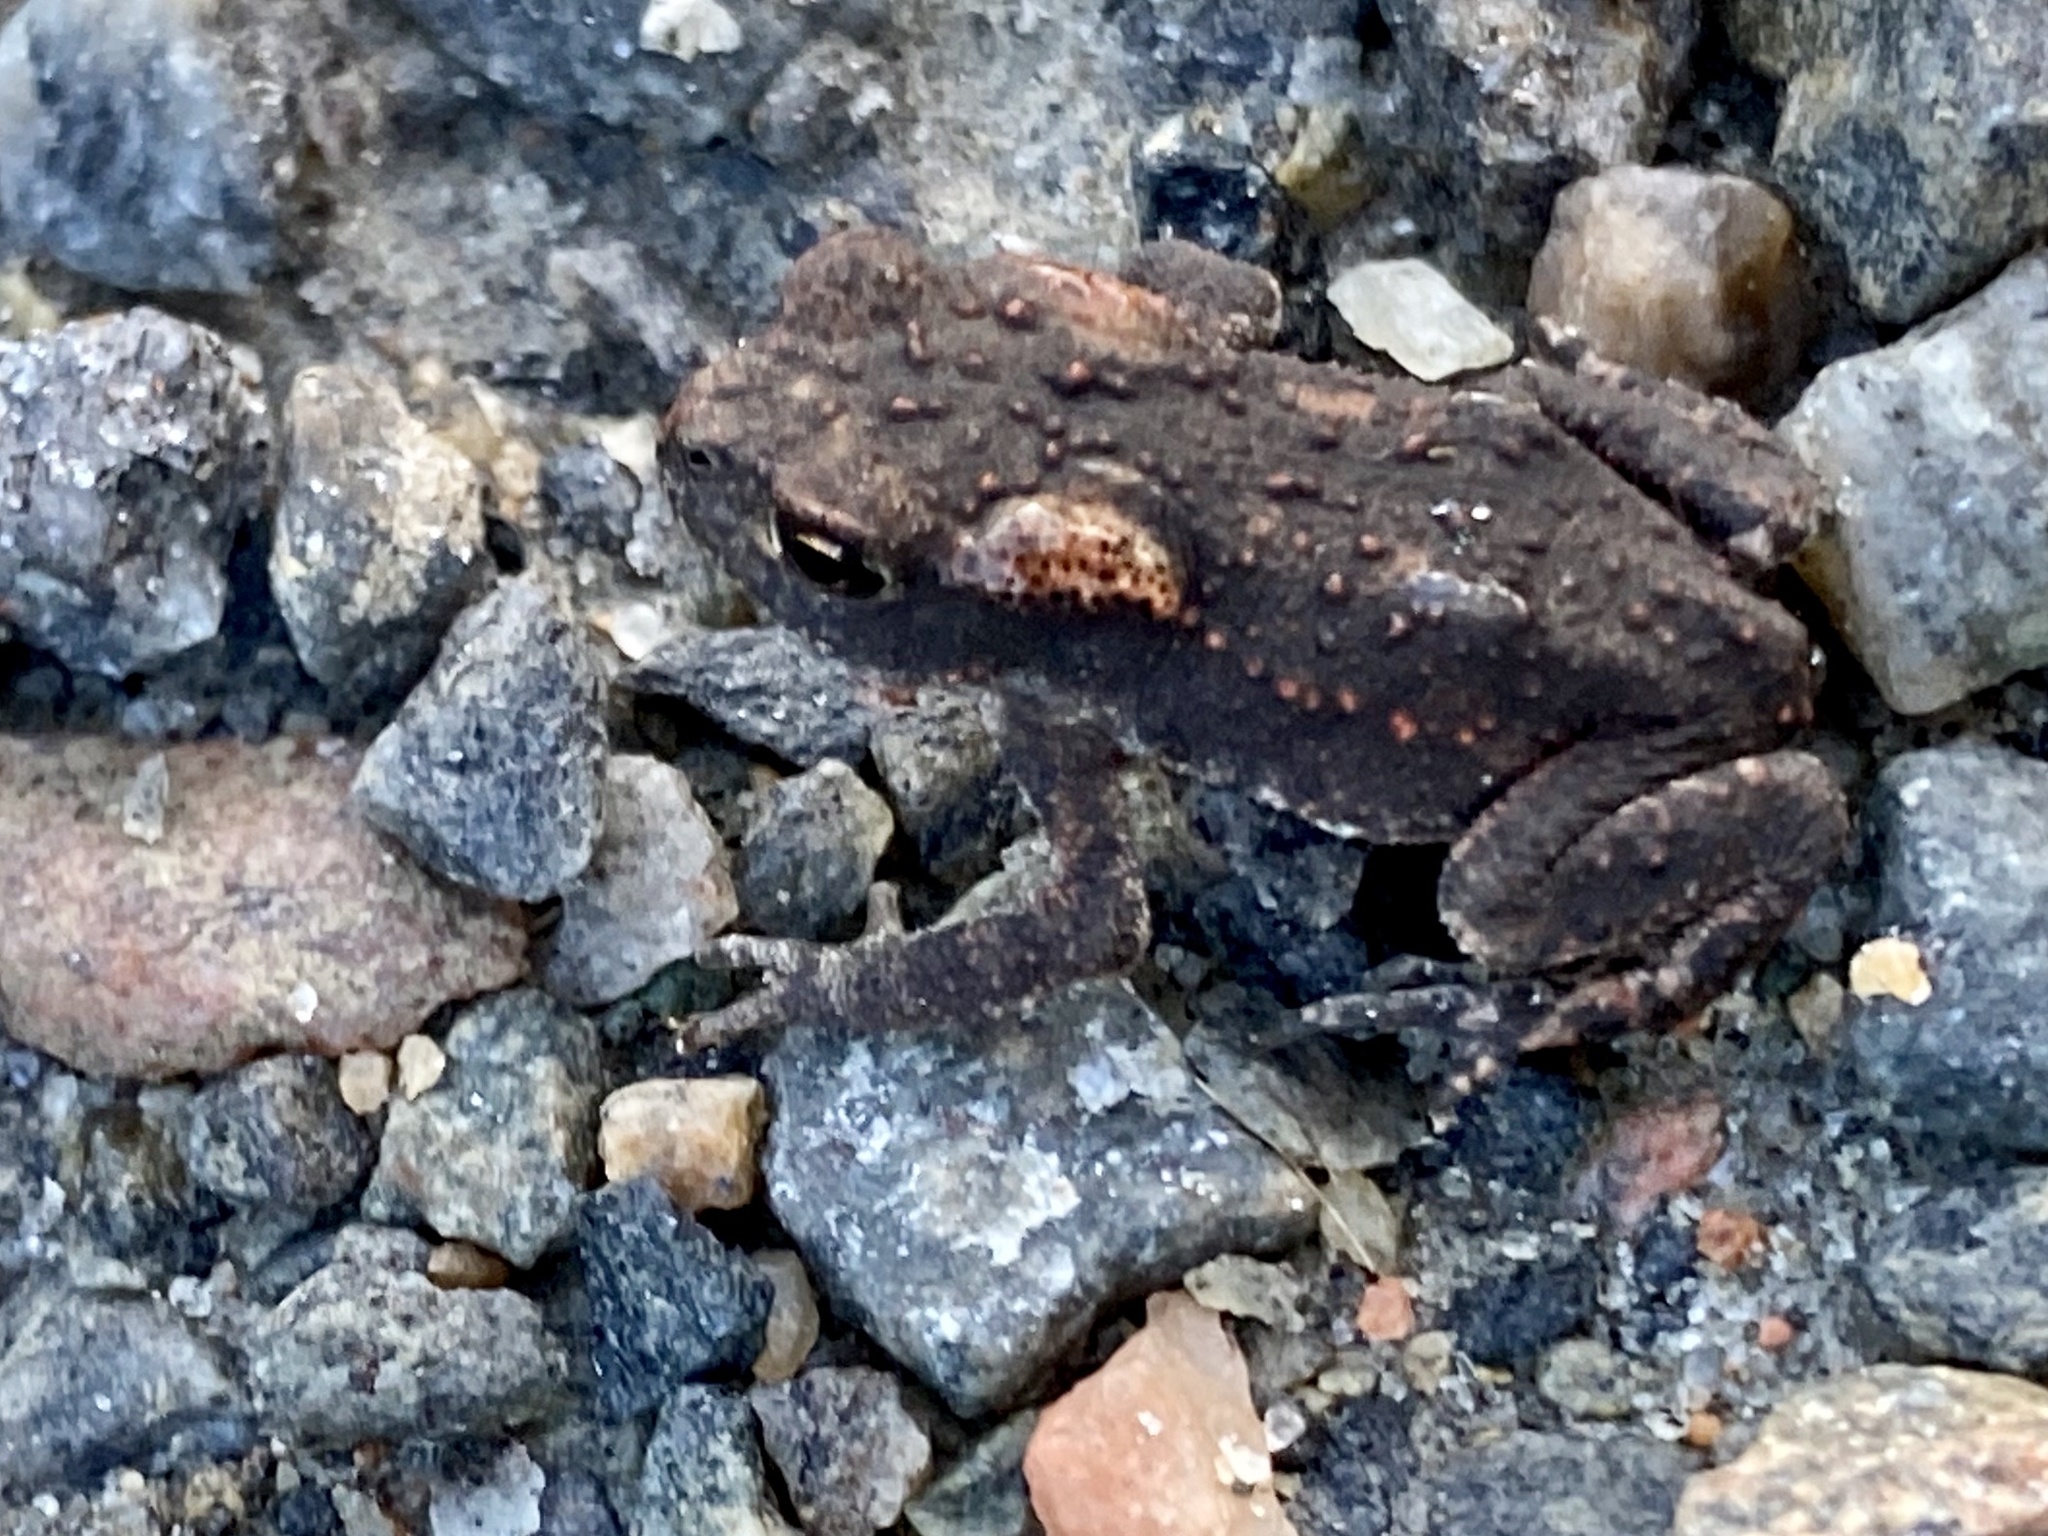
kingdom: Animalia
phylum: Chordata
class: Amphibia
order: Anura
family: Bufonidae
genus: Bufo
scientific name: Bufo bufo
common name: Common toad
